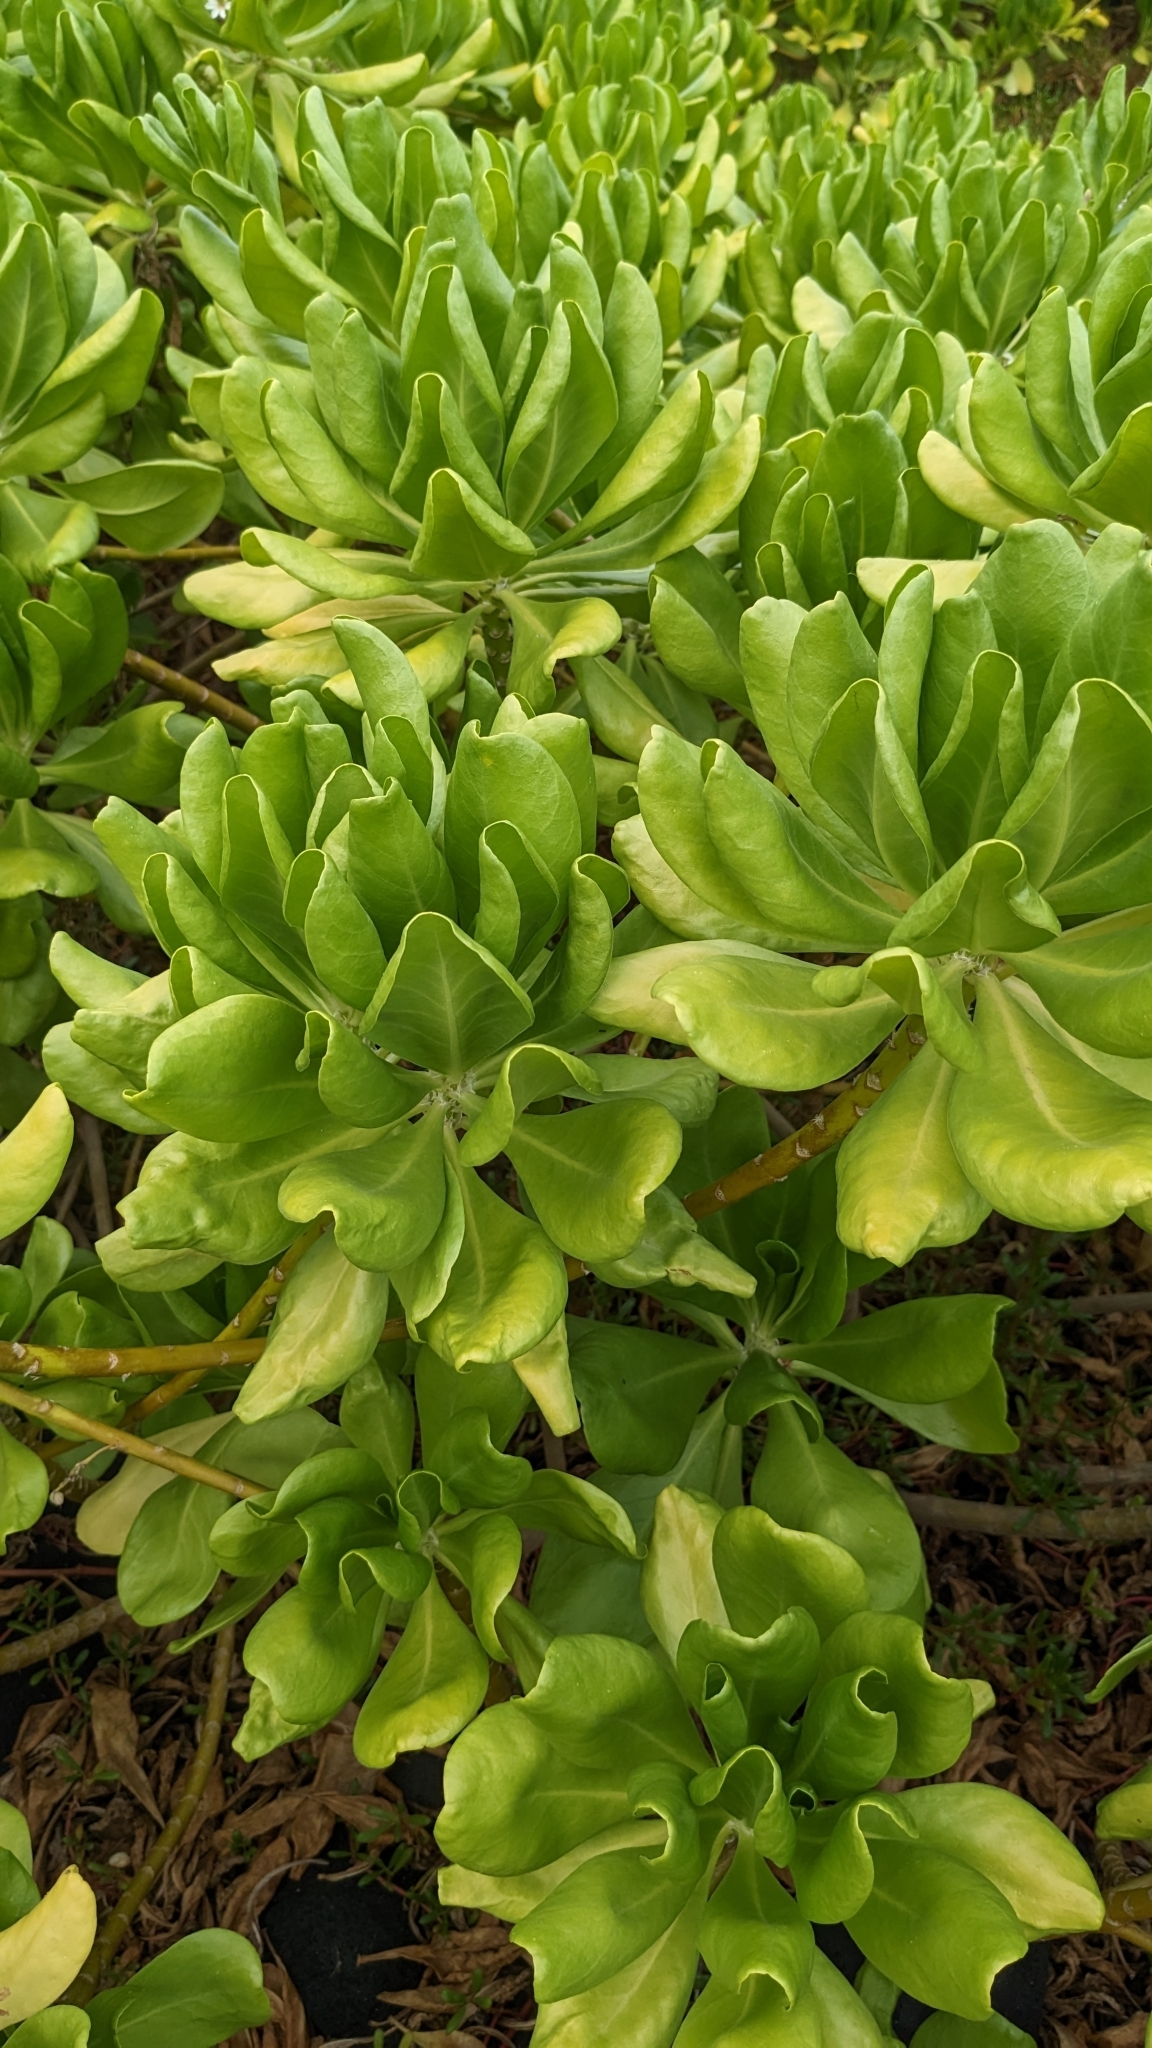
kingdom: Plantae
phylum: Tracheophyta
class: Magnoliopsida
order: Asterales
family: Goodeniaceae
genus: Scaevola
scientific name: Scaevola taccada
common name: Sea lettucetree
